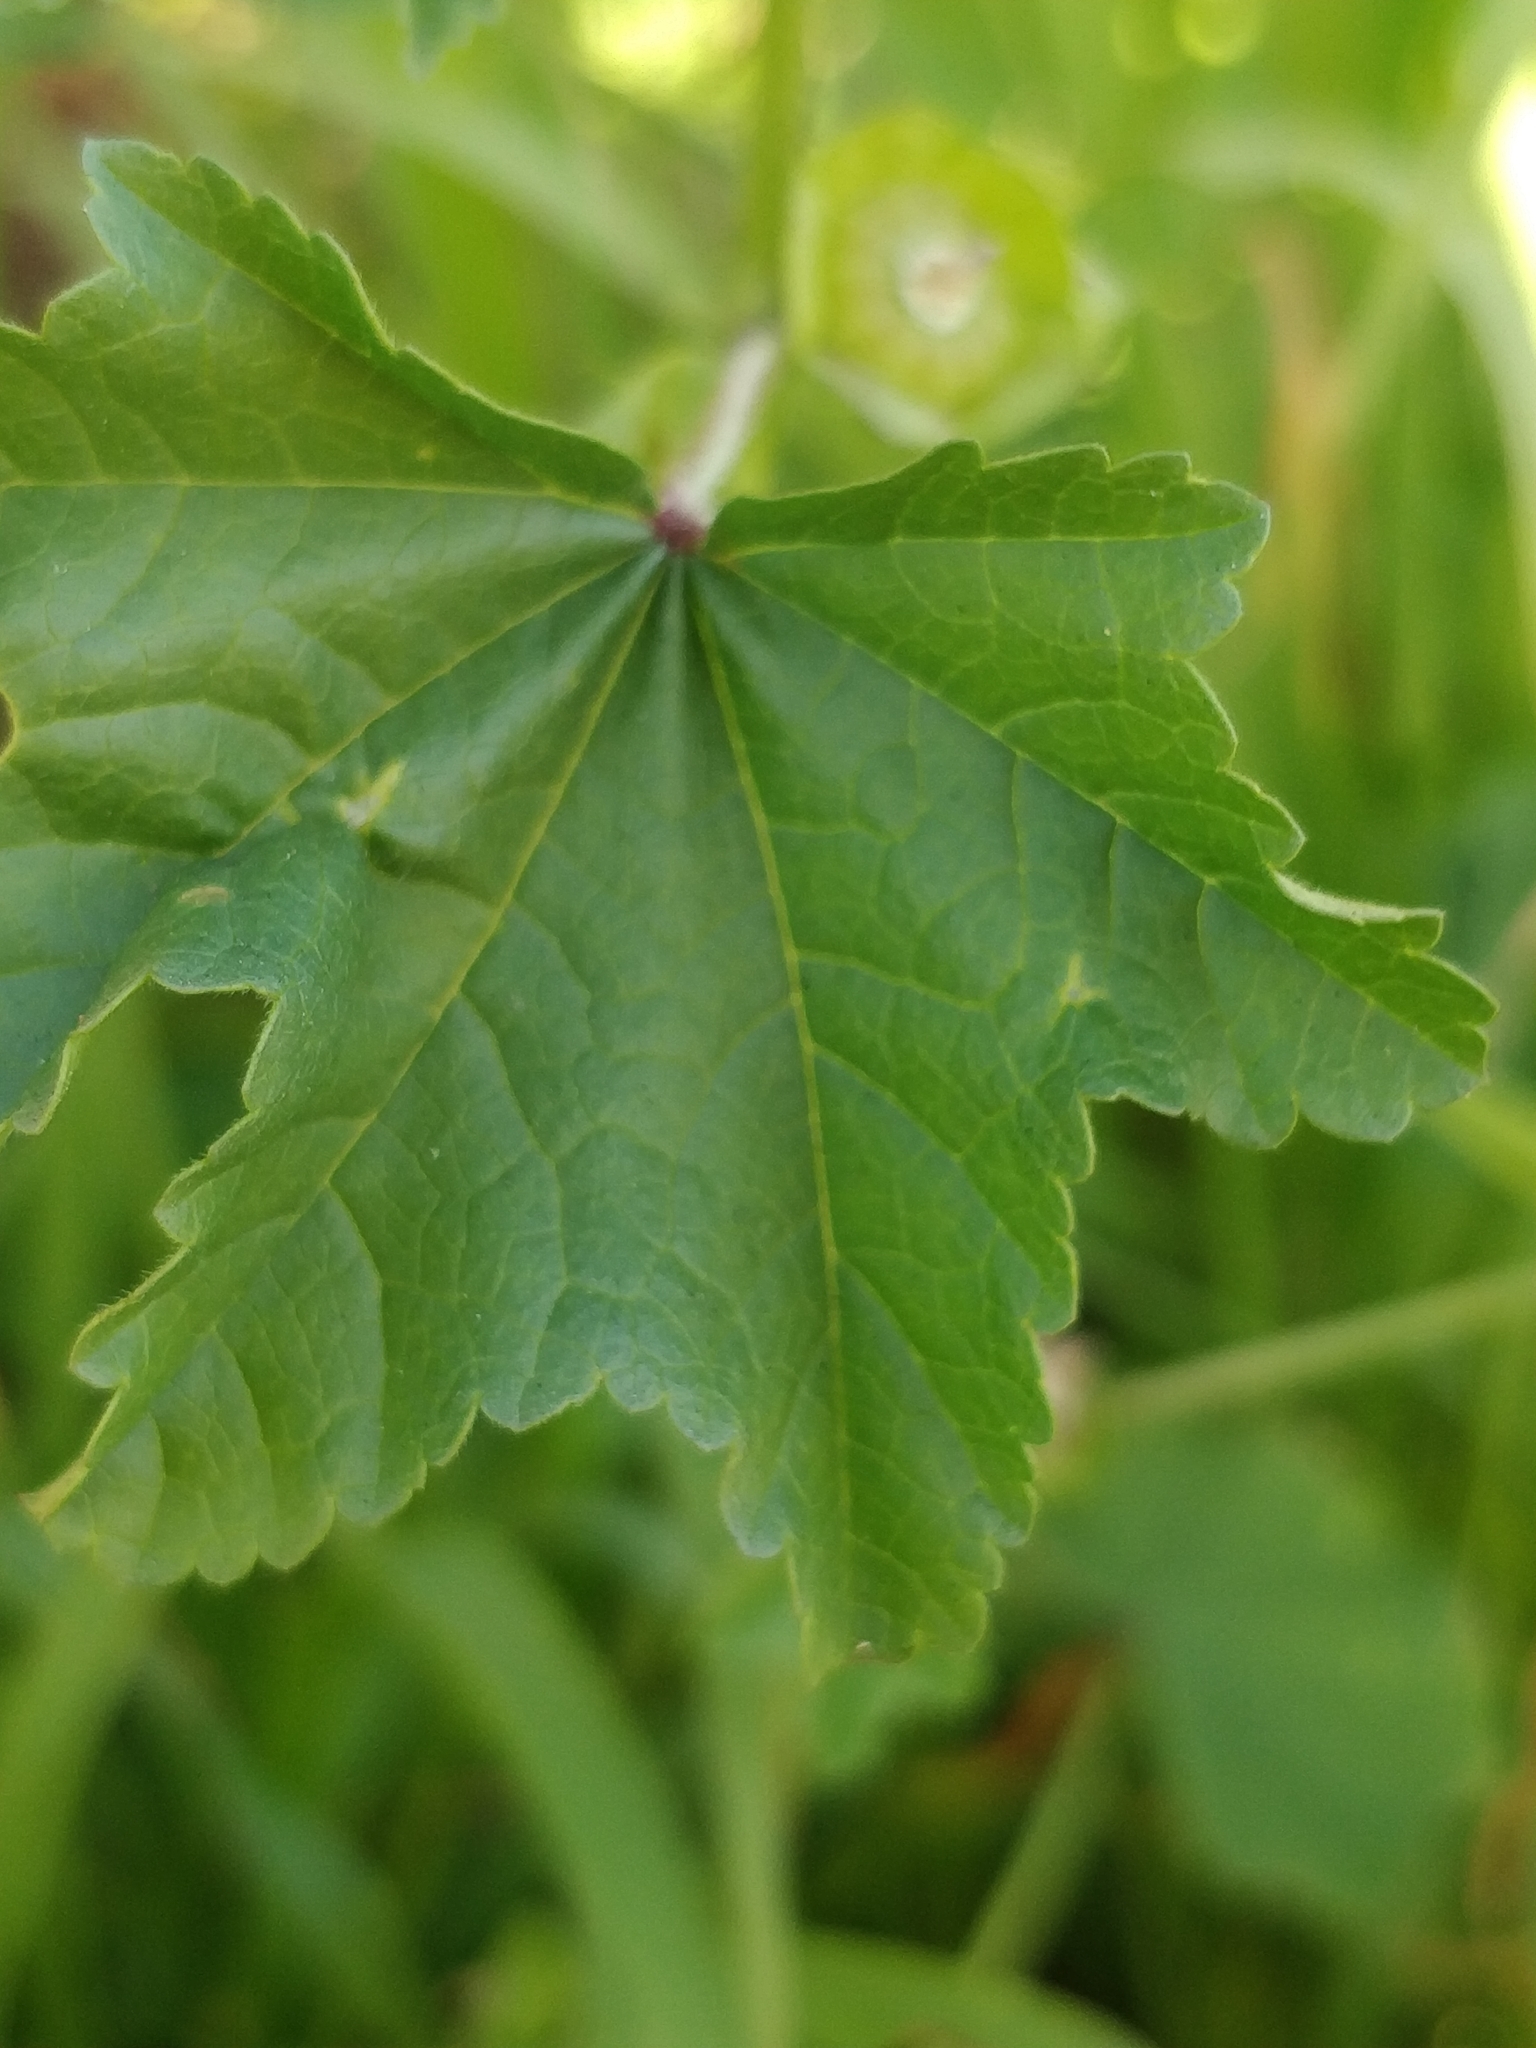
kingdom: Plantae
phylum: Tracheophyta
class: Magnoliopsida
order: Malvales
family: Malvaceae
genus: Malva
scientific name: Malva parviflora
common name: Least mallow
